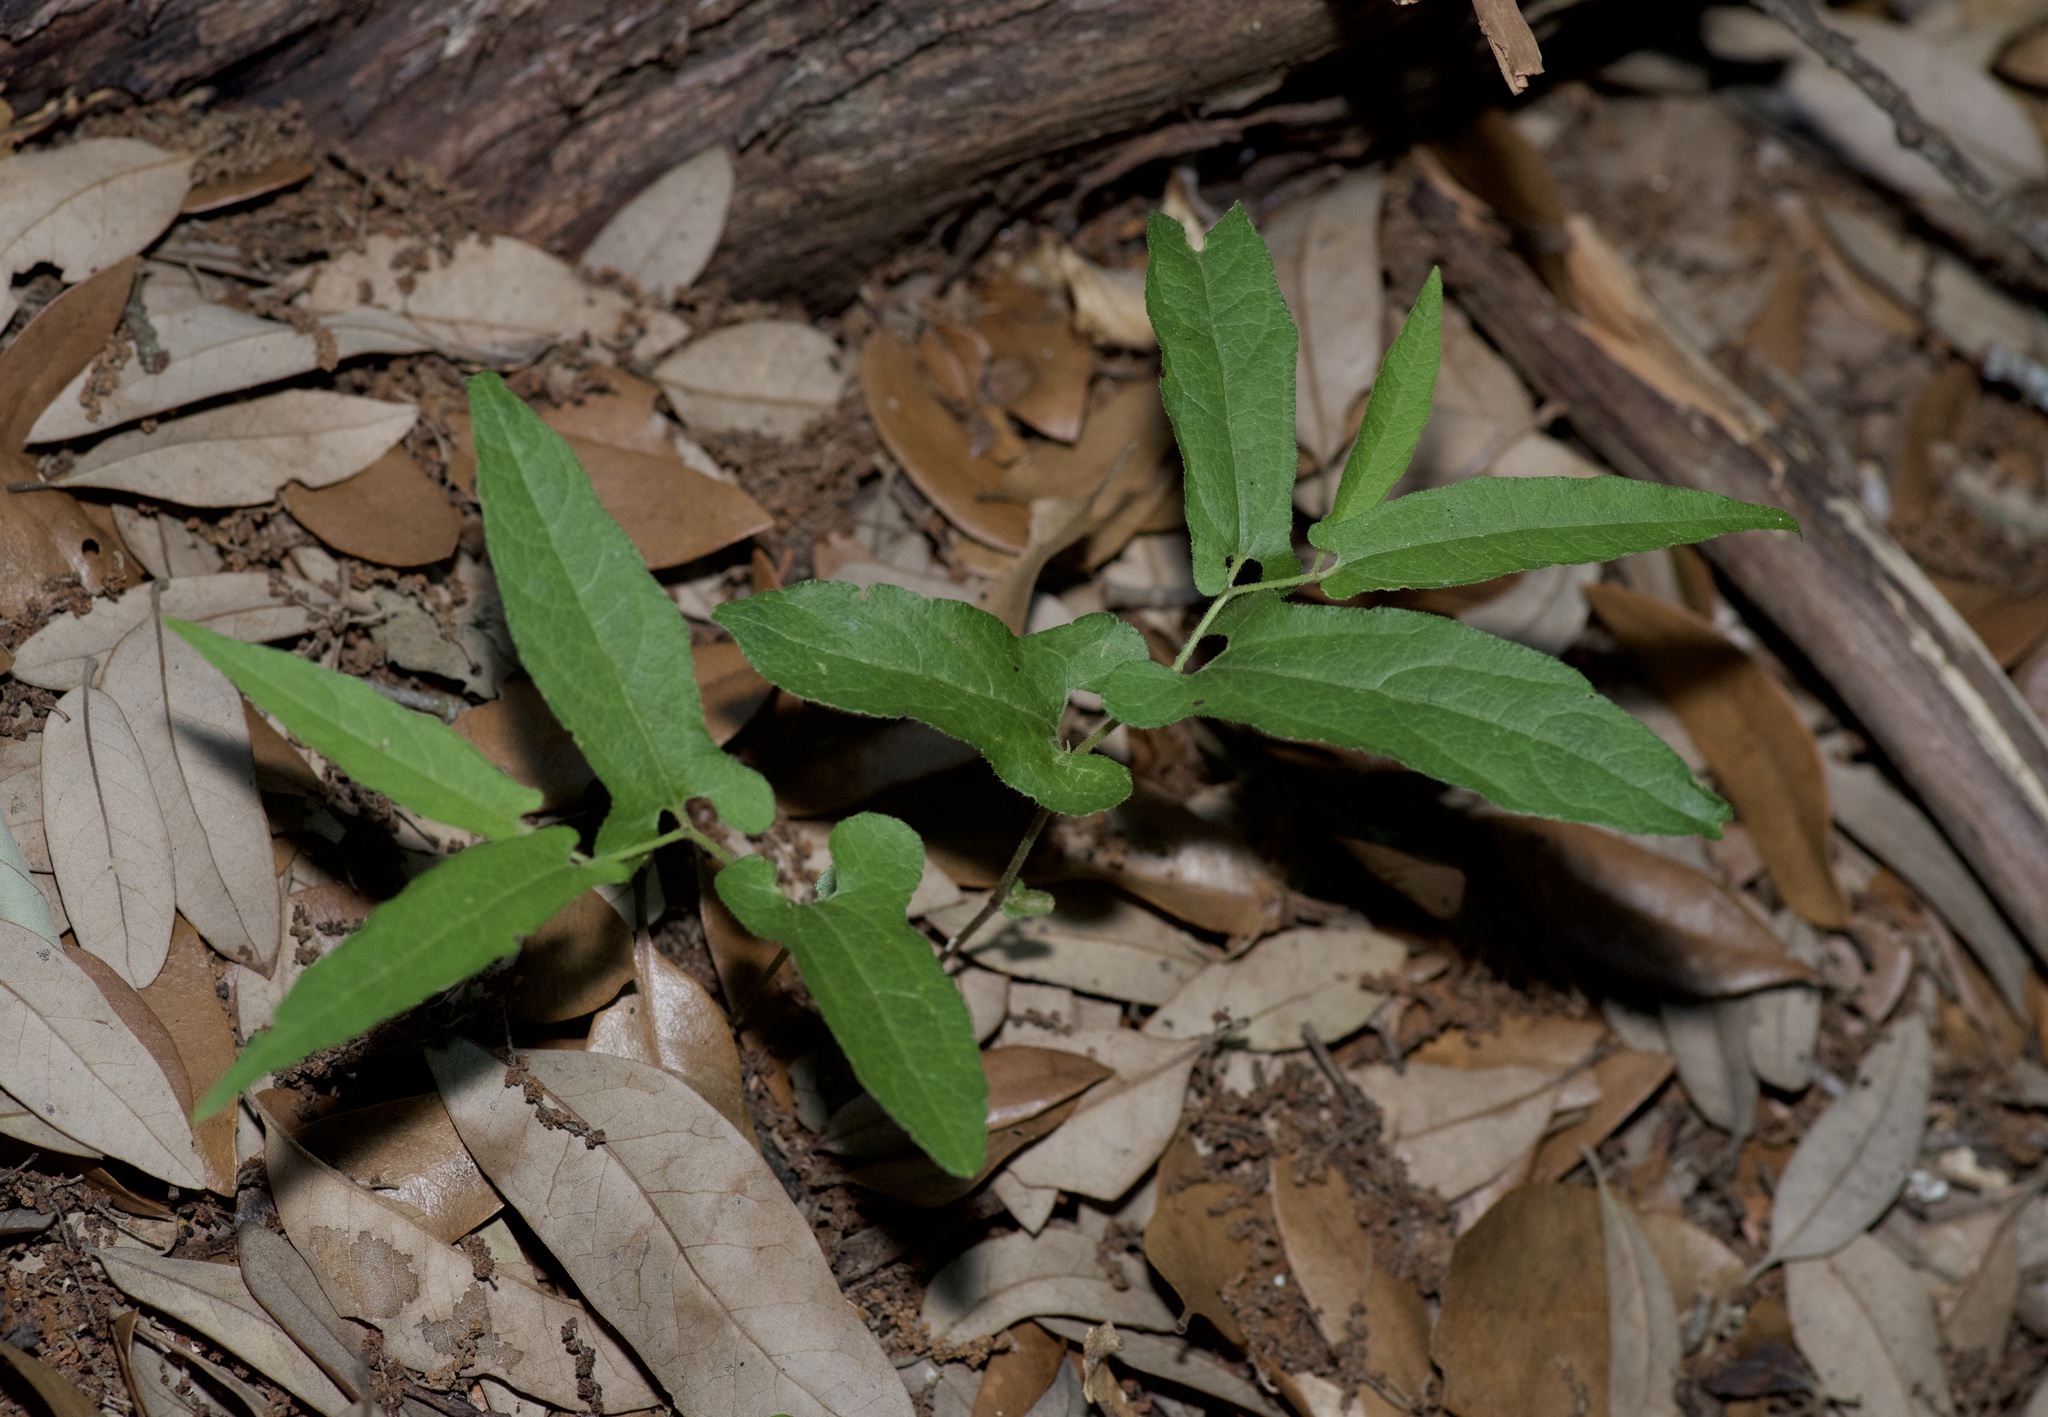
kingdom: Plantae
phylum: Tracheophyta
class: Magnoliopsida
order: Piperales
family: Aristolochiaceae
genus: Endodeca
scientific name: Endodeca serpentaria
